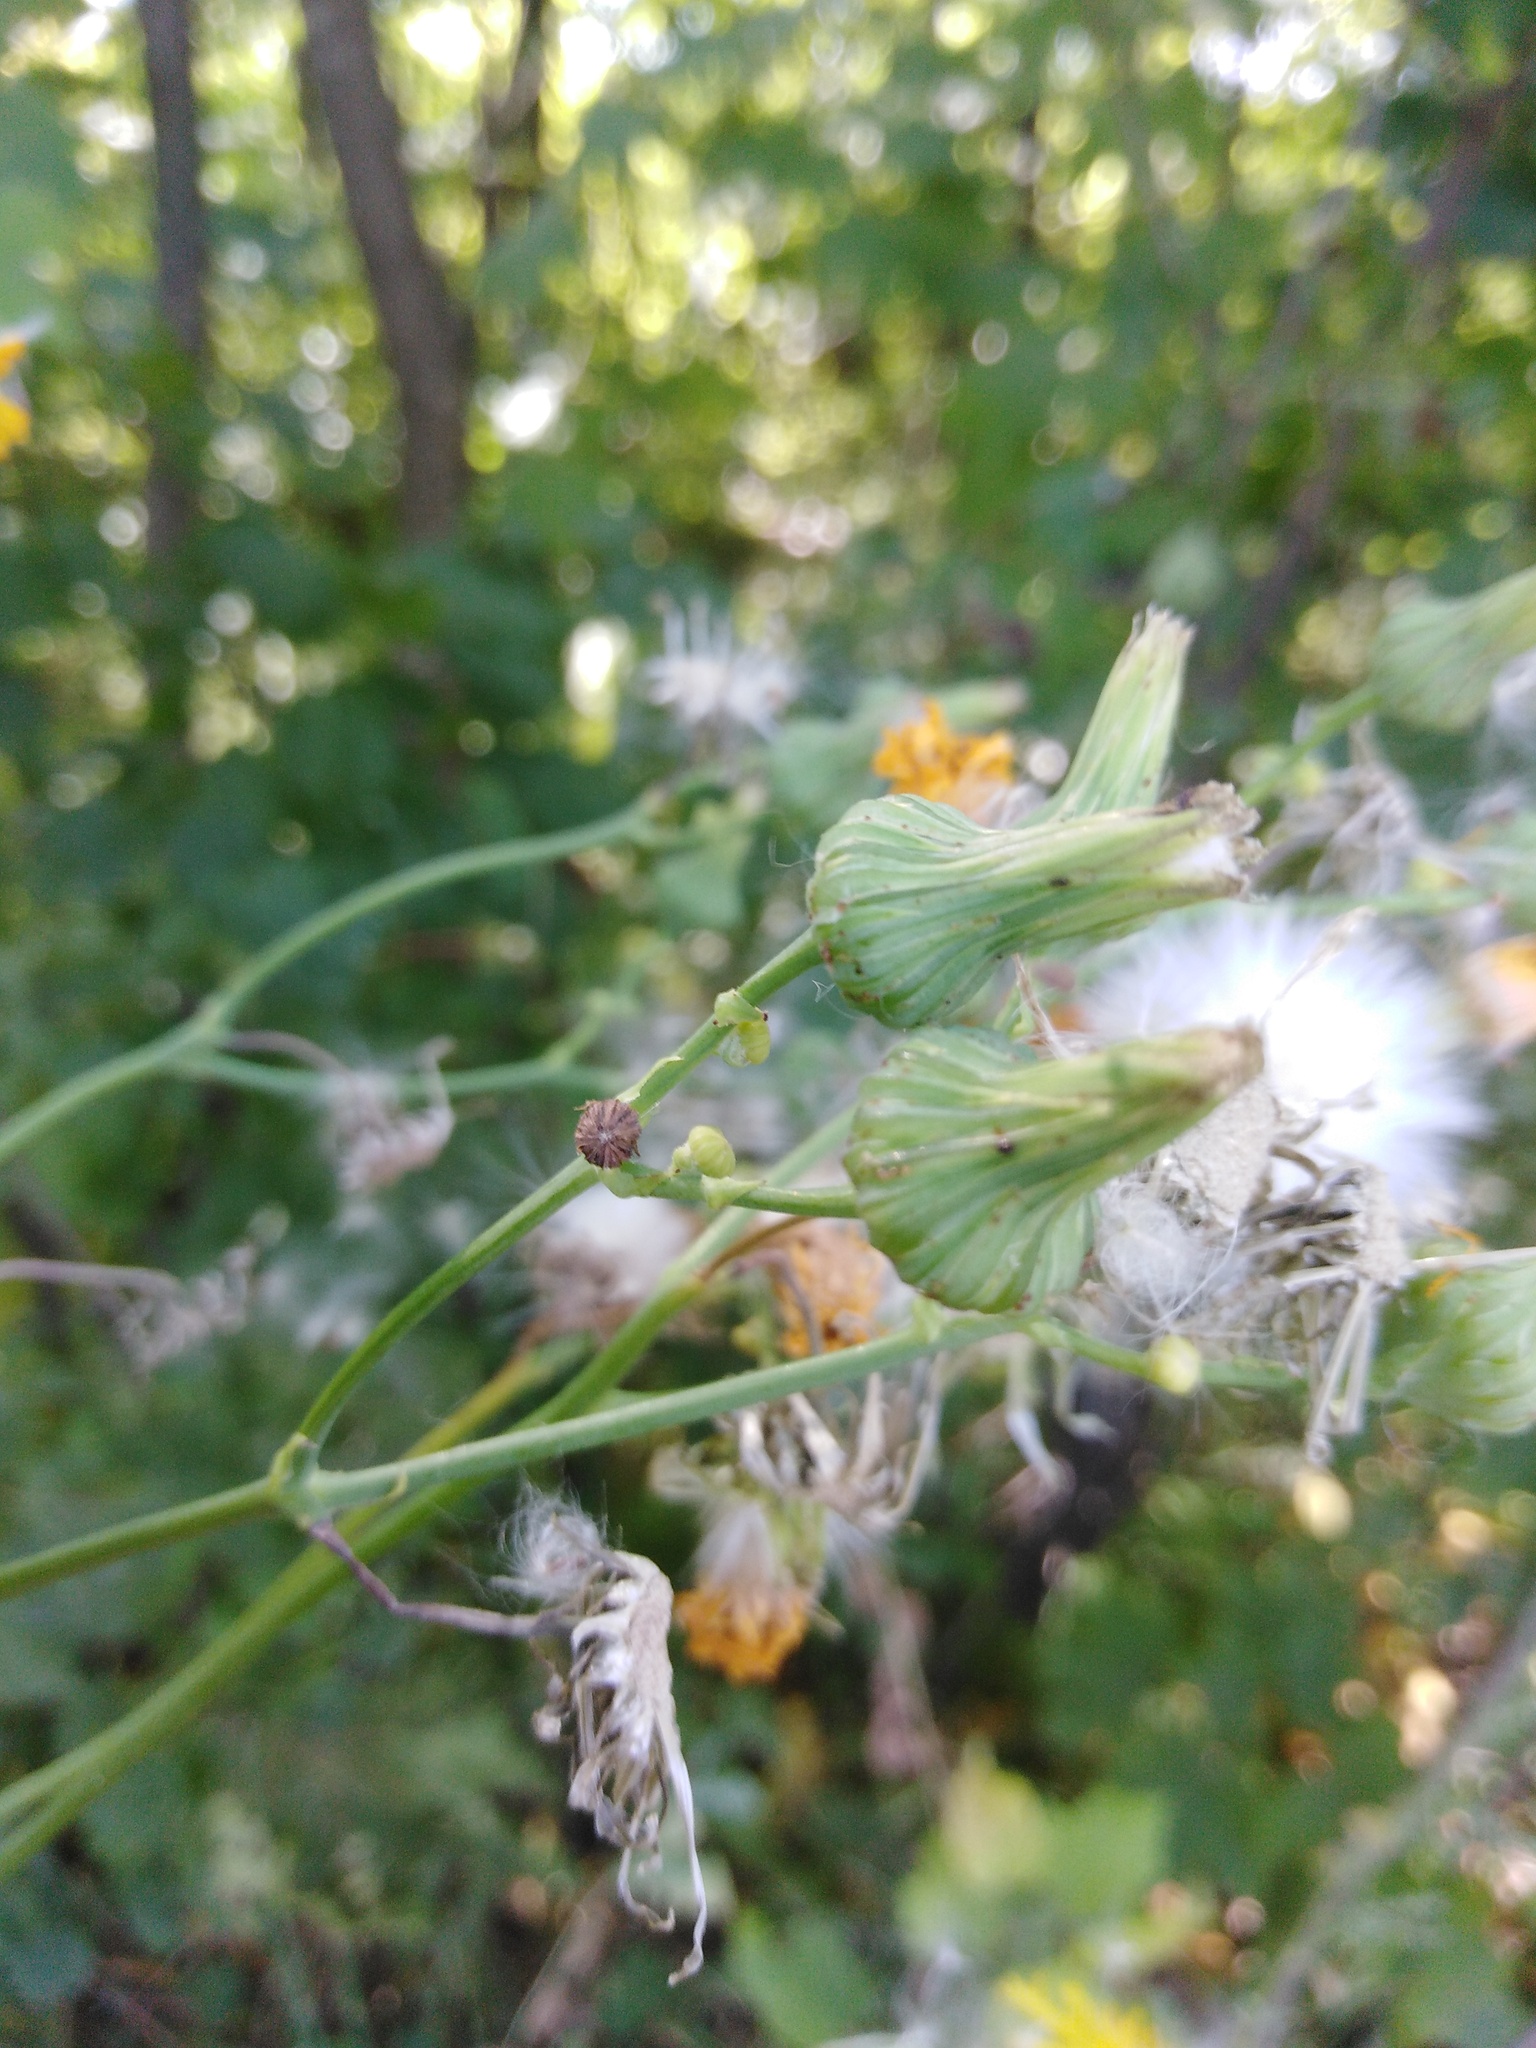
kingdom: Plantae
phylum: Tracheophyta
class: Magnoliopsida
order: Asterales
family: Asteraceae
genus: Sonchus
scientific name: Sonchus arvensis
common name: Perennial sow-thistle
